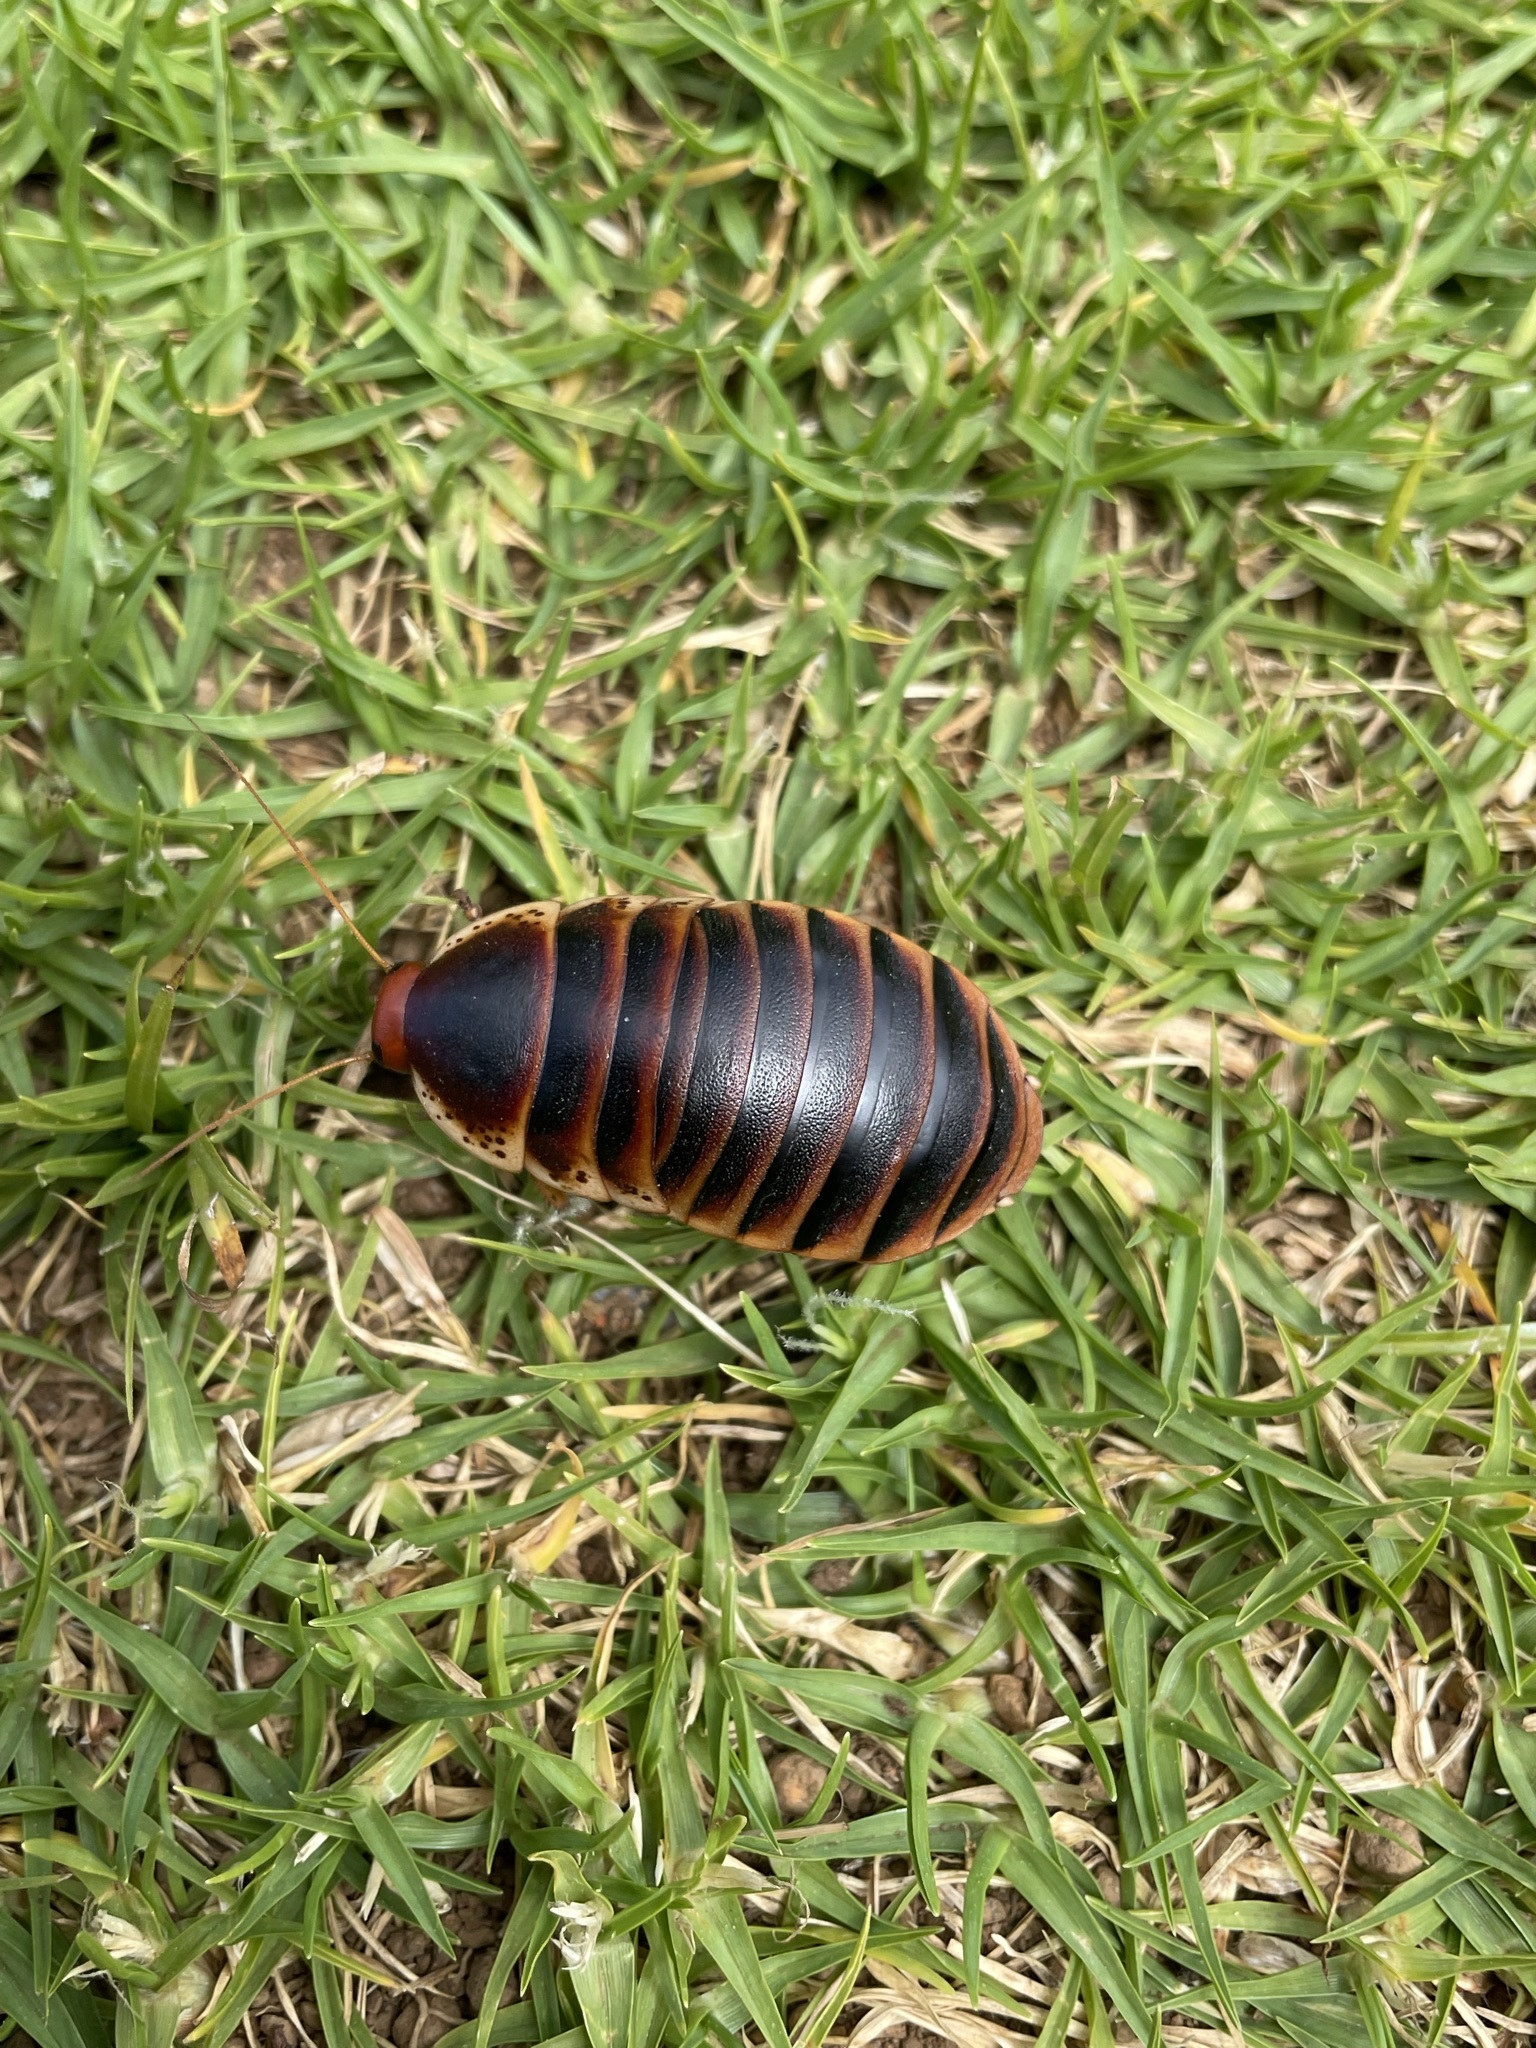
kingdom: Animalia
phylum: Arthropoda
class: Insecta
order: Blattodea
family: Blaberidae
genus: Aptera
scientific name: Aptera fusca
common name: Cape mountain cockroach
